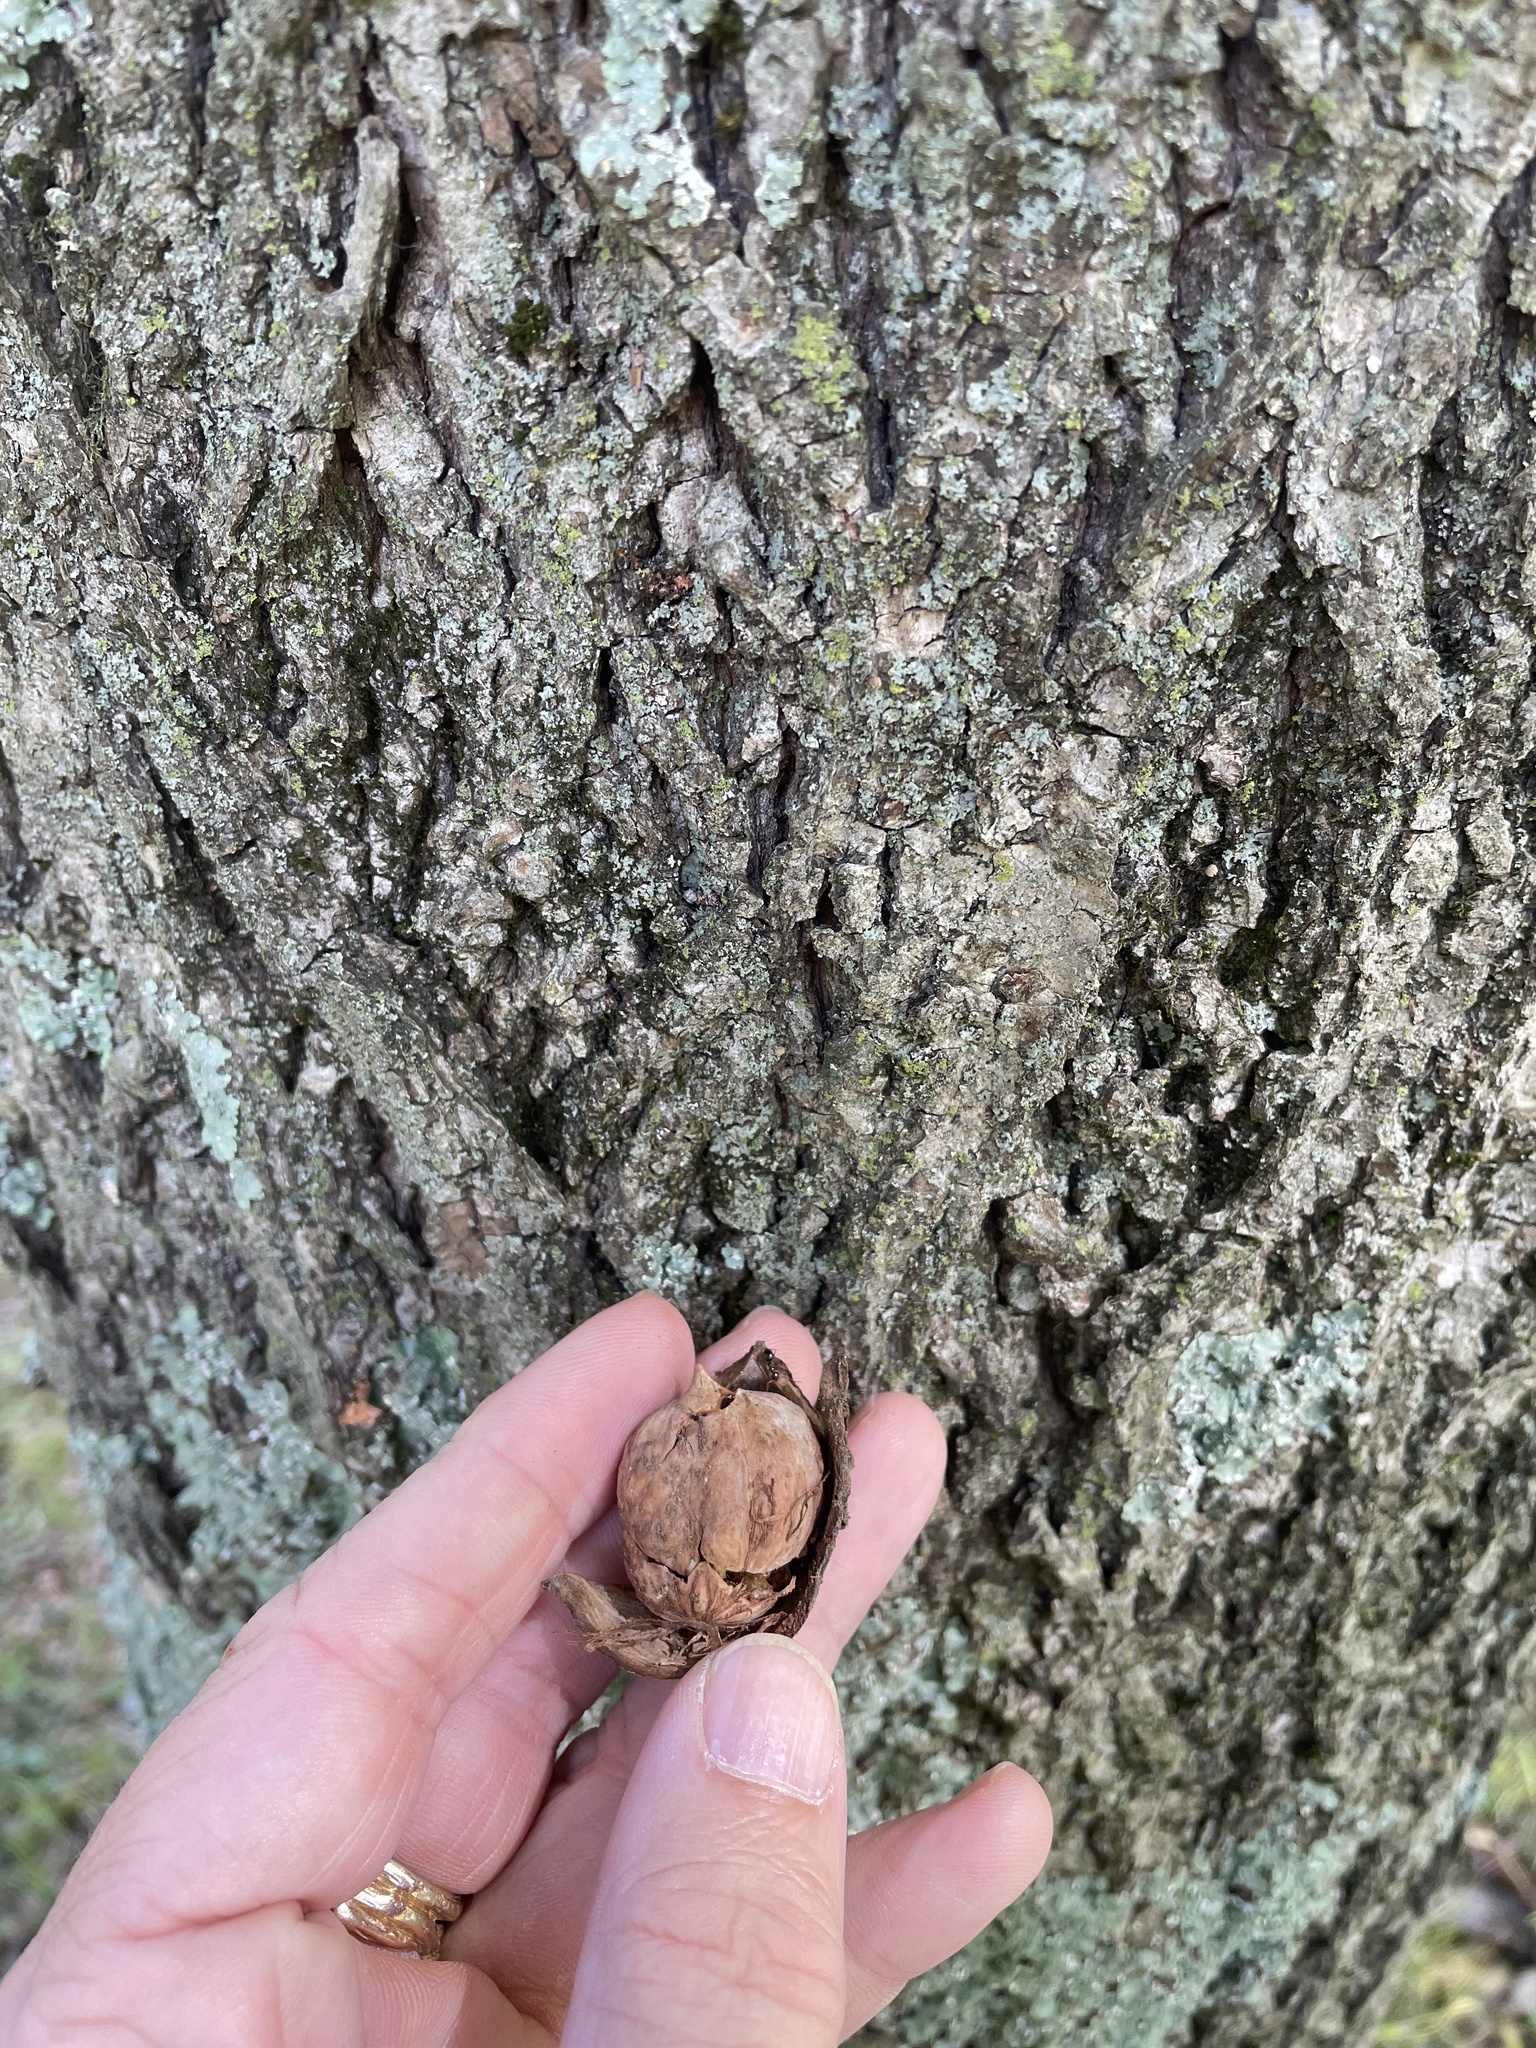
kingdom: Plantae
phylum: Tracheophyta
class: Magnoliopsida
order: Fagales
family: Juglandaceae
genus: Carya
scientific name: Carya cordiformis
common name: Bitternut hickory
